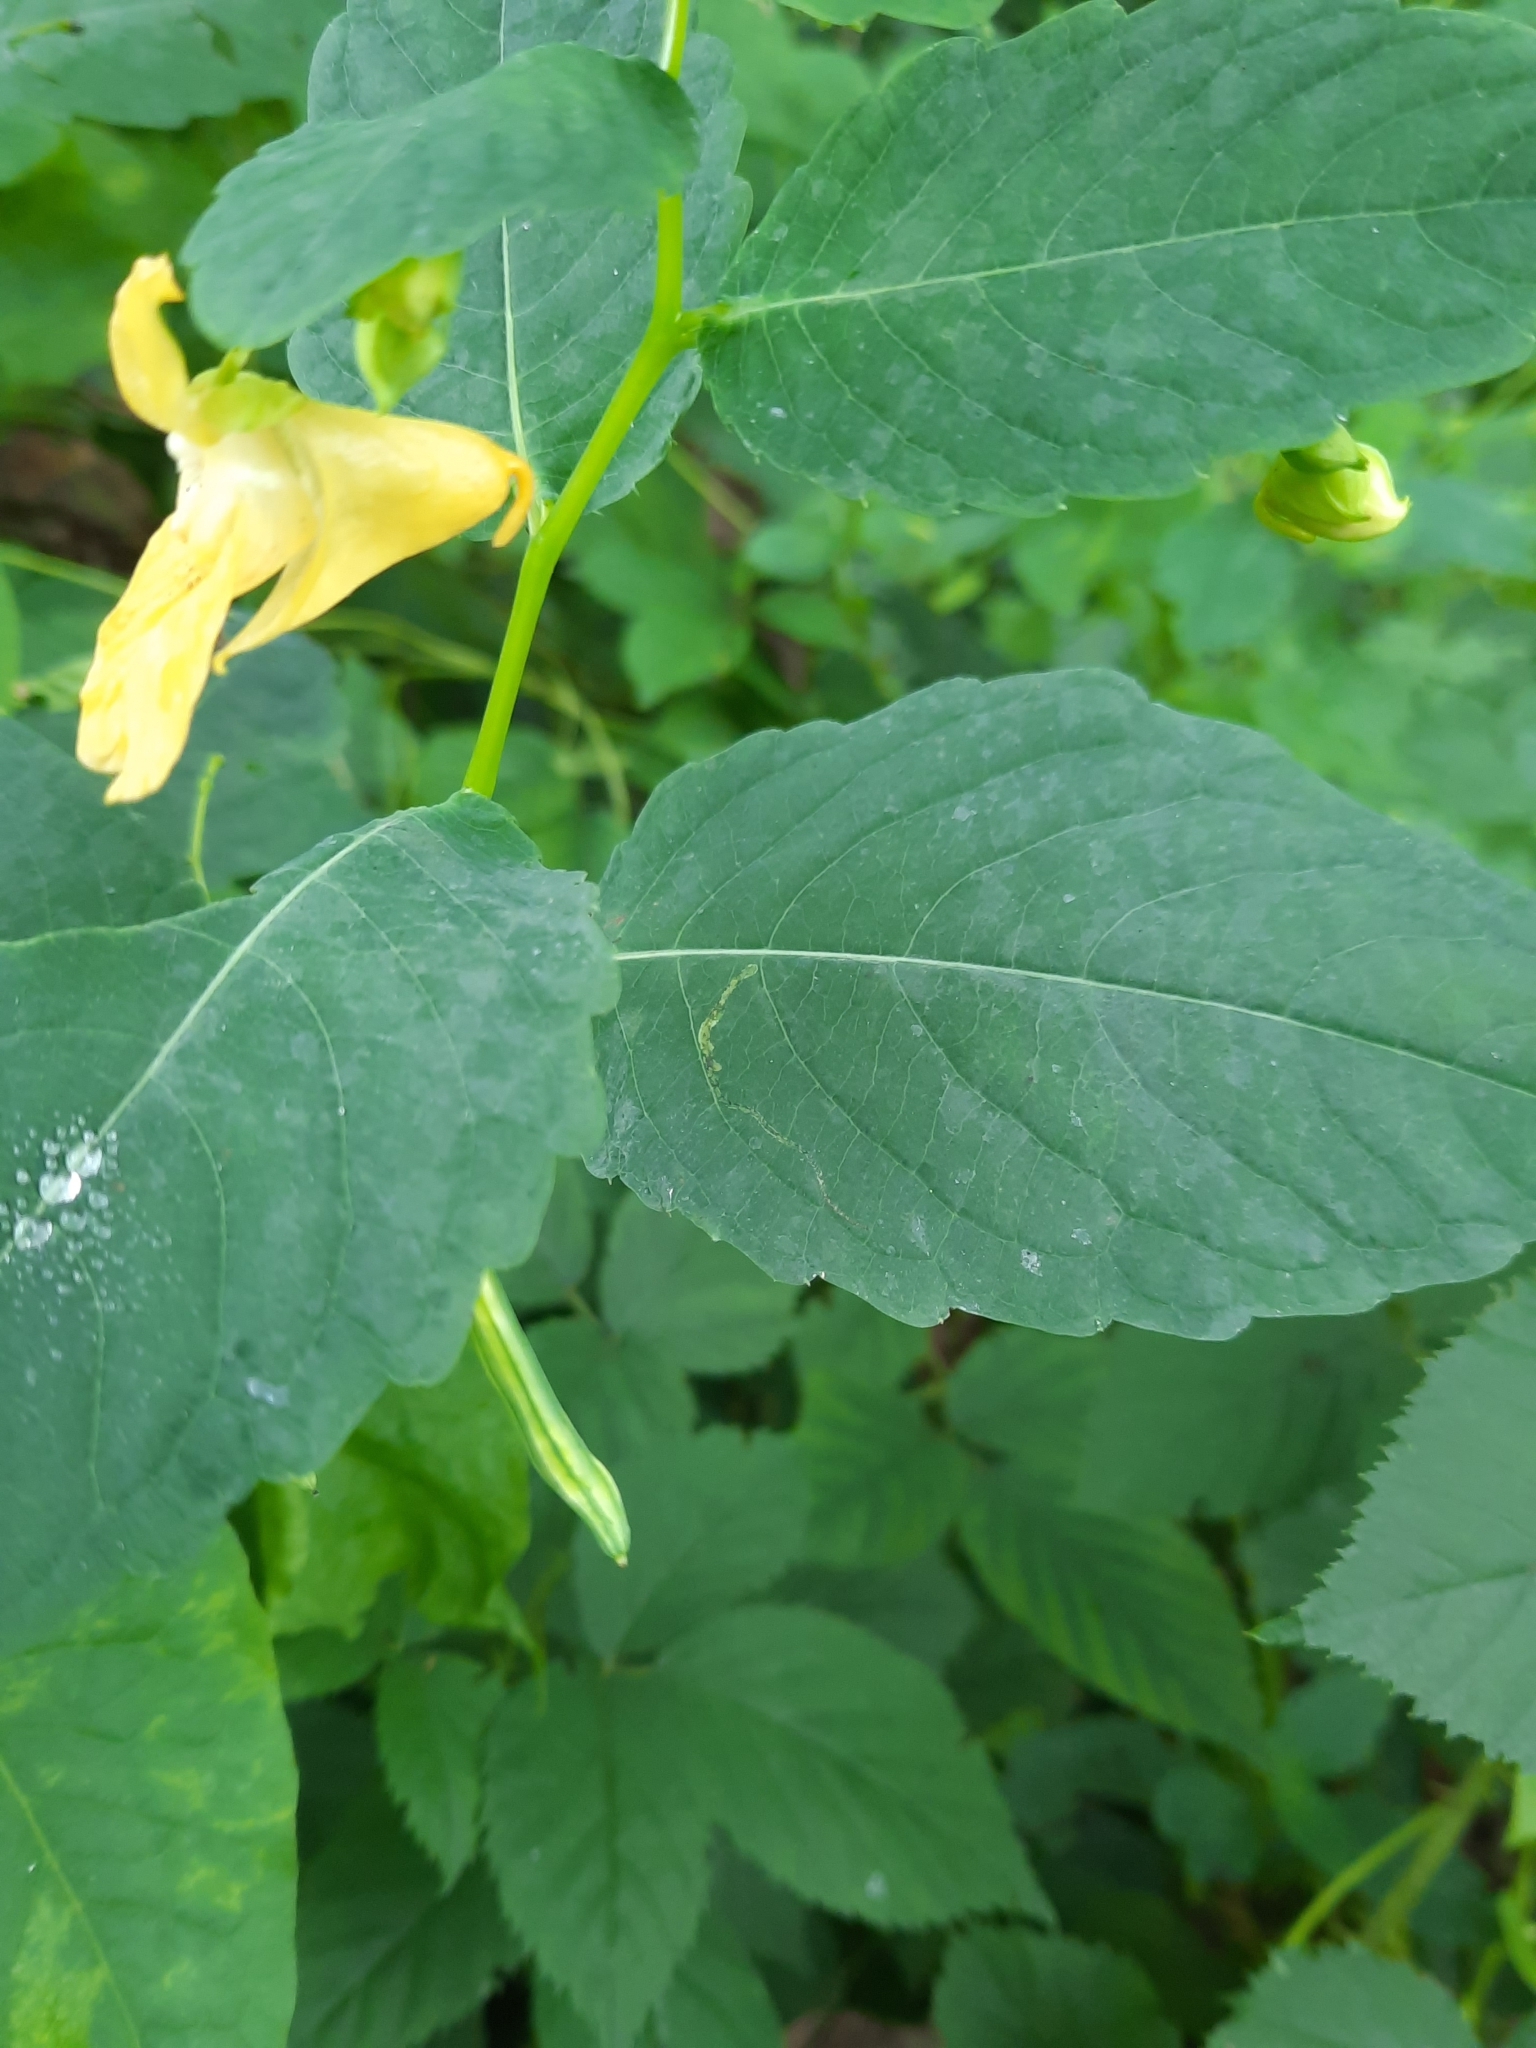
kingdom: Plantae
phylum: Tracheophyta
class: Magnoliopsida
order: Ericales
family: Balsaminaceae
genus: Impatiens
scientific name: Impatiens pallida
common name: Pale snapweed
